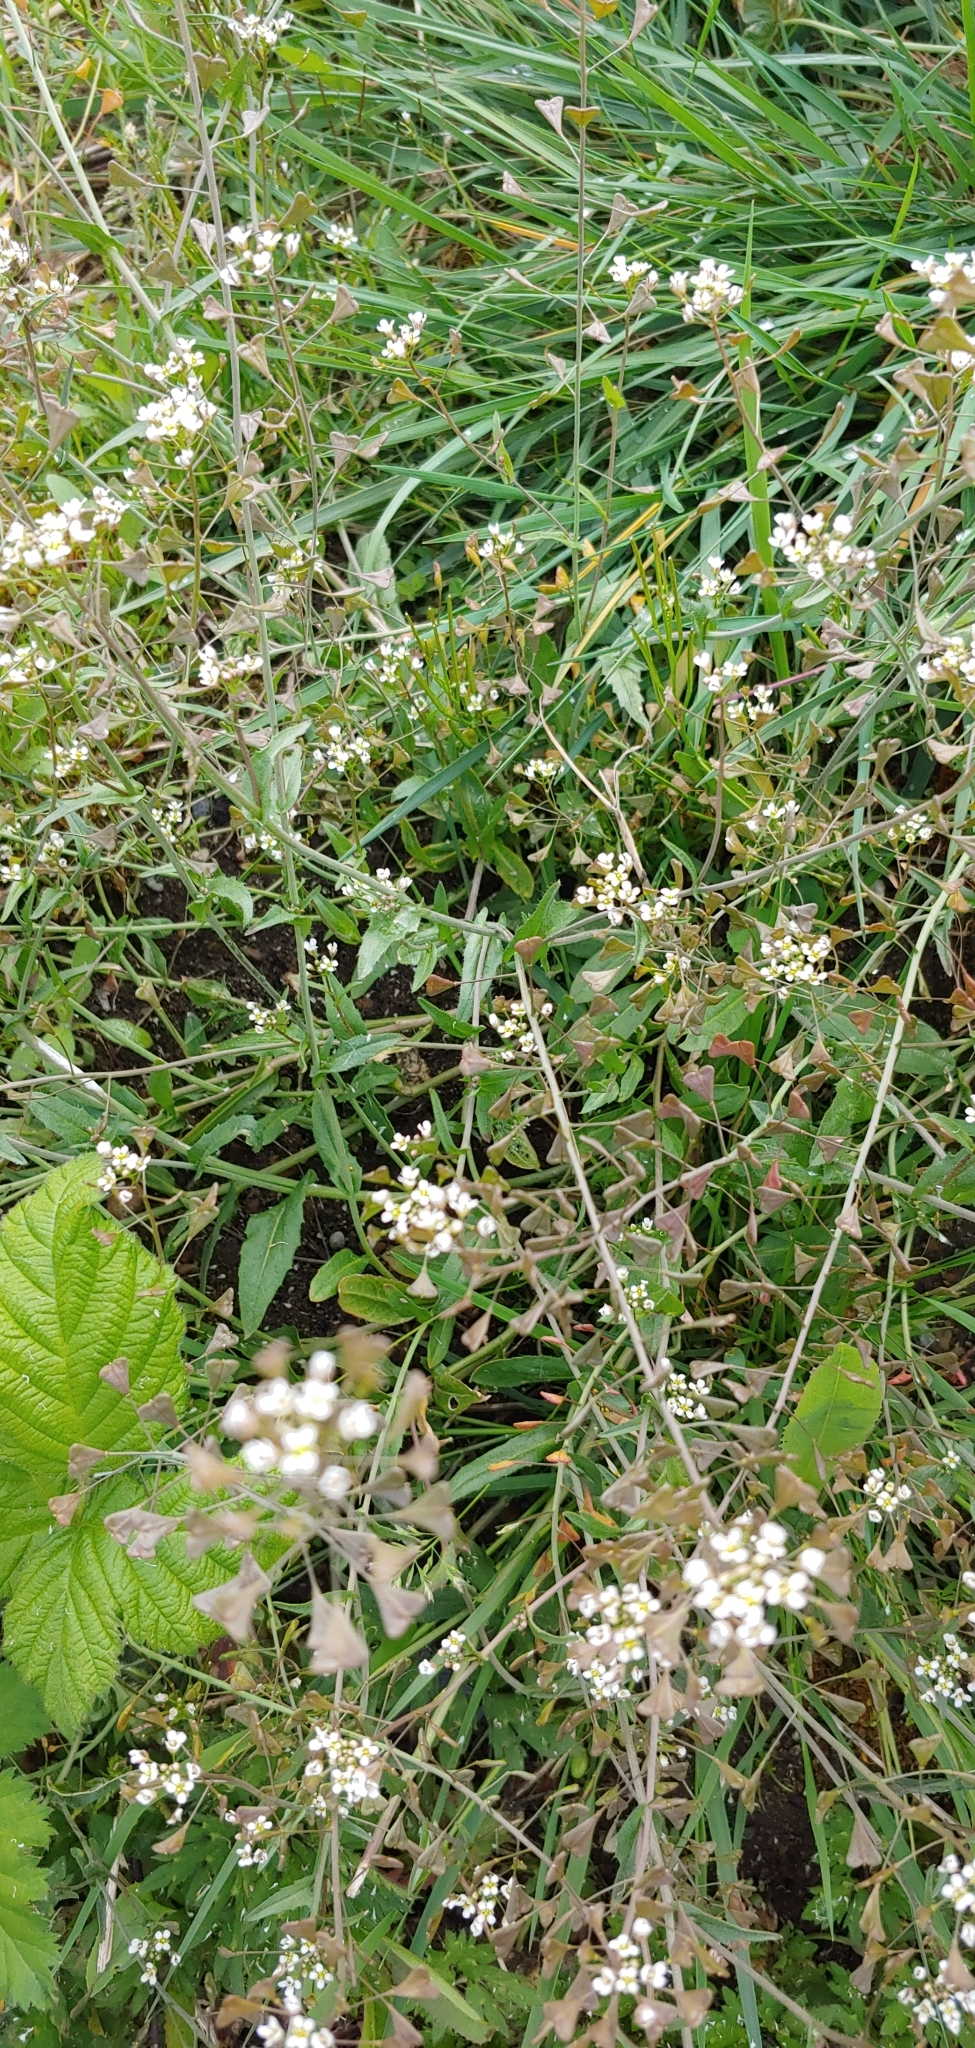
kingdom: Plantae
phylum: Tracheophyta
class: Magnoliopsida
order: Brassicales
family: Brassicaceae
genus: Capsella
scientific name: Capsella bursa-pastoris
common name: Shepherd's purse
